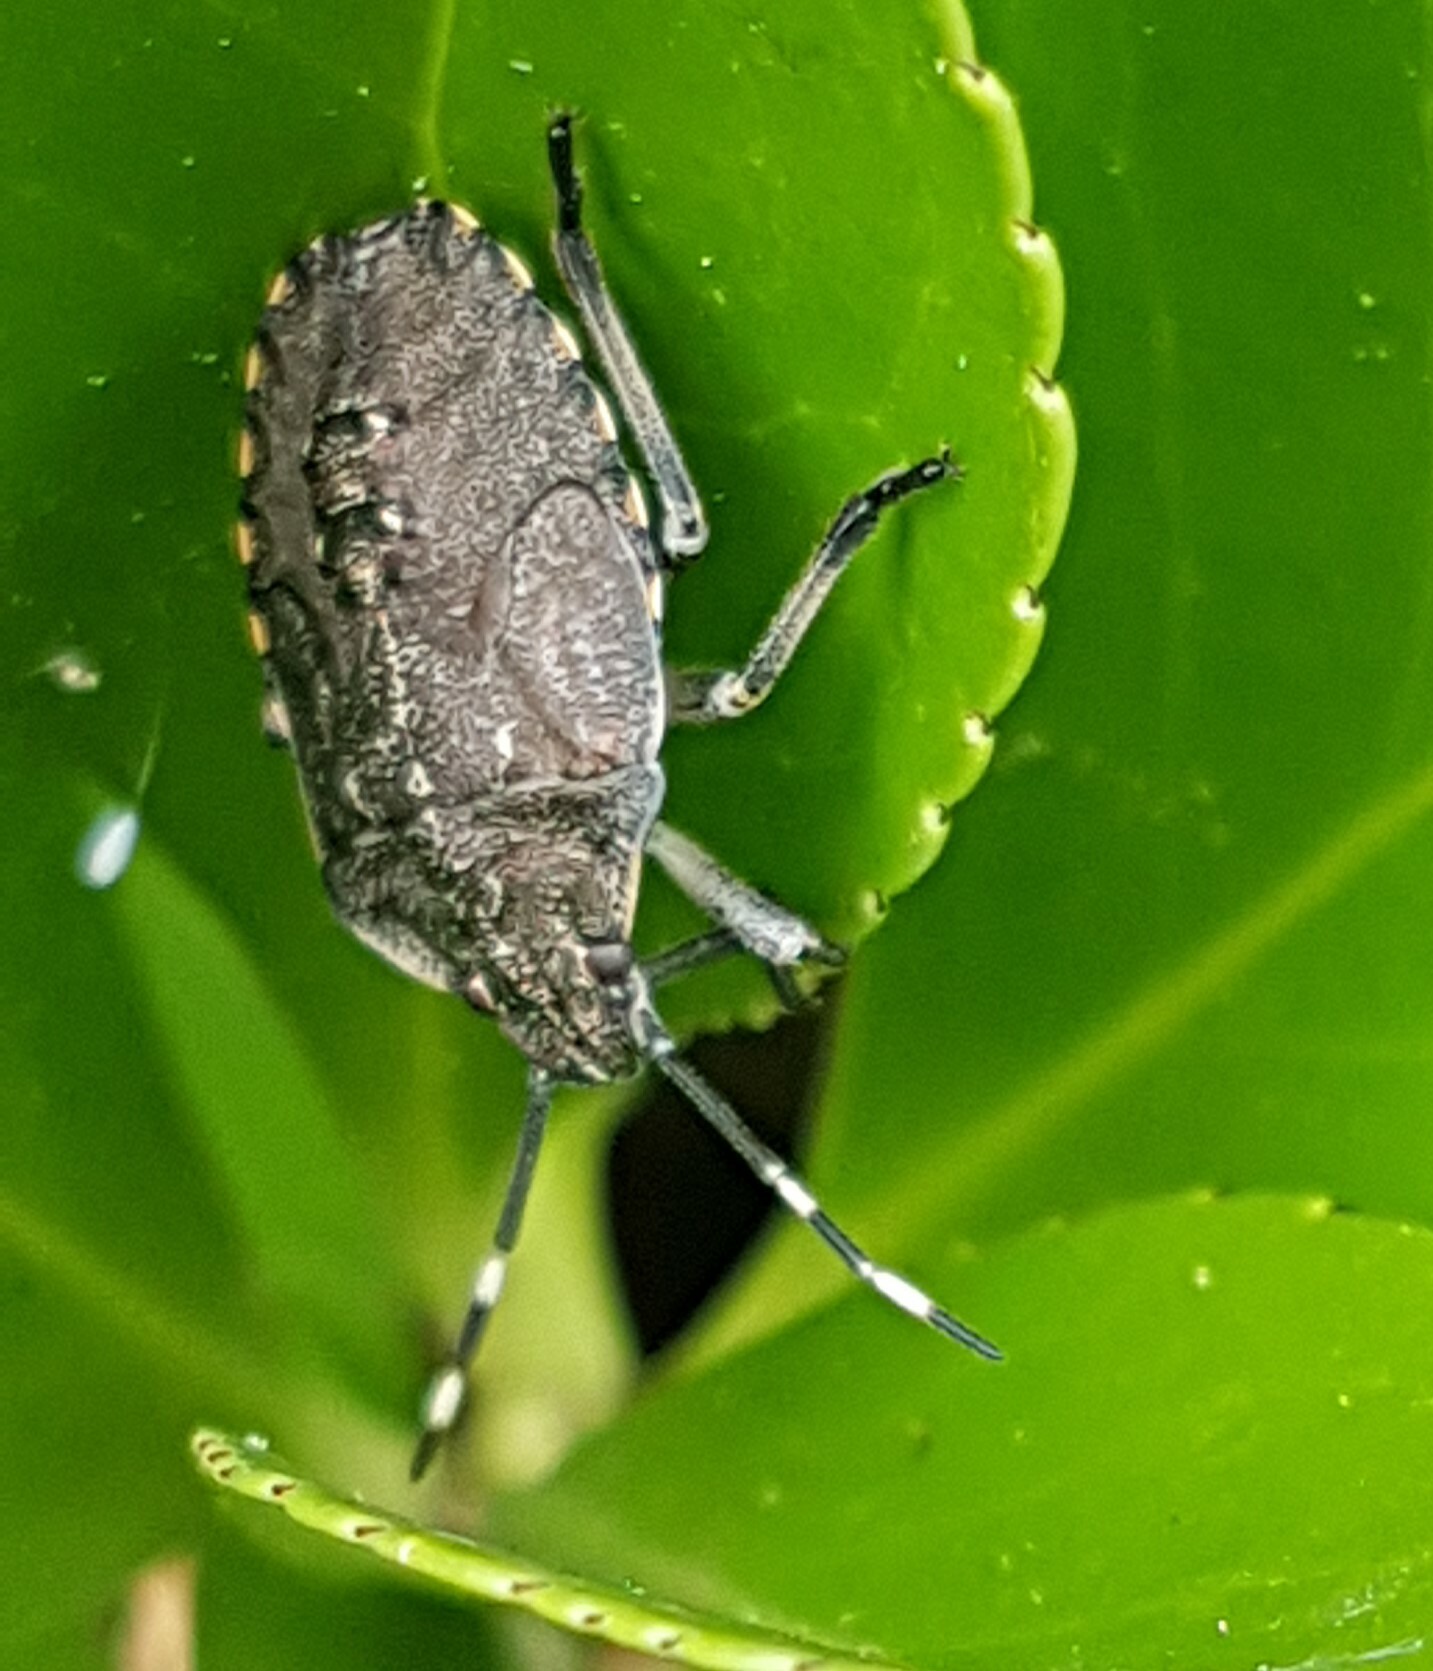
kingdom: Animalia
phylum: Arthropoda
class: Insecta
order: Hemiptera
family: Pentatomidae
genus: Rhaphigaster
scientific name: Rhaphigaster nebulosa
